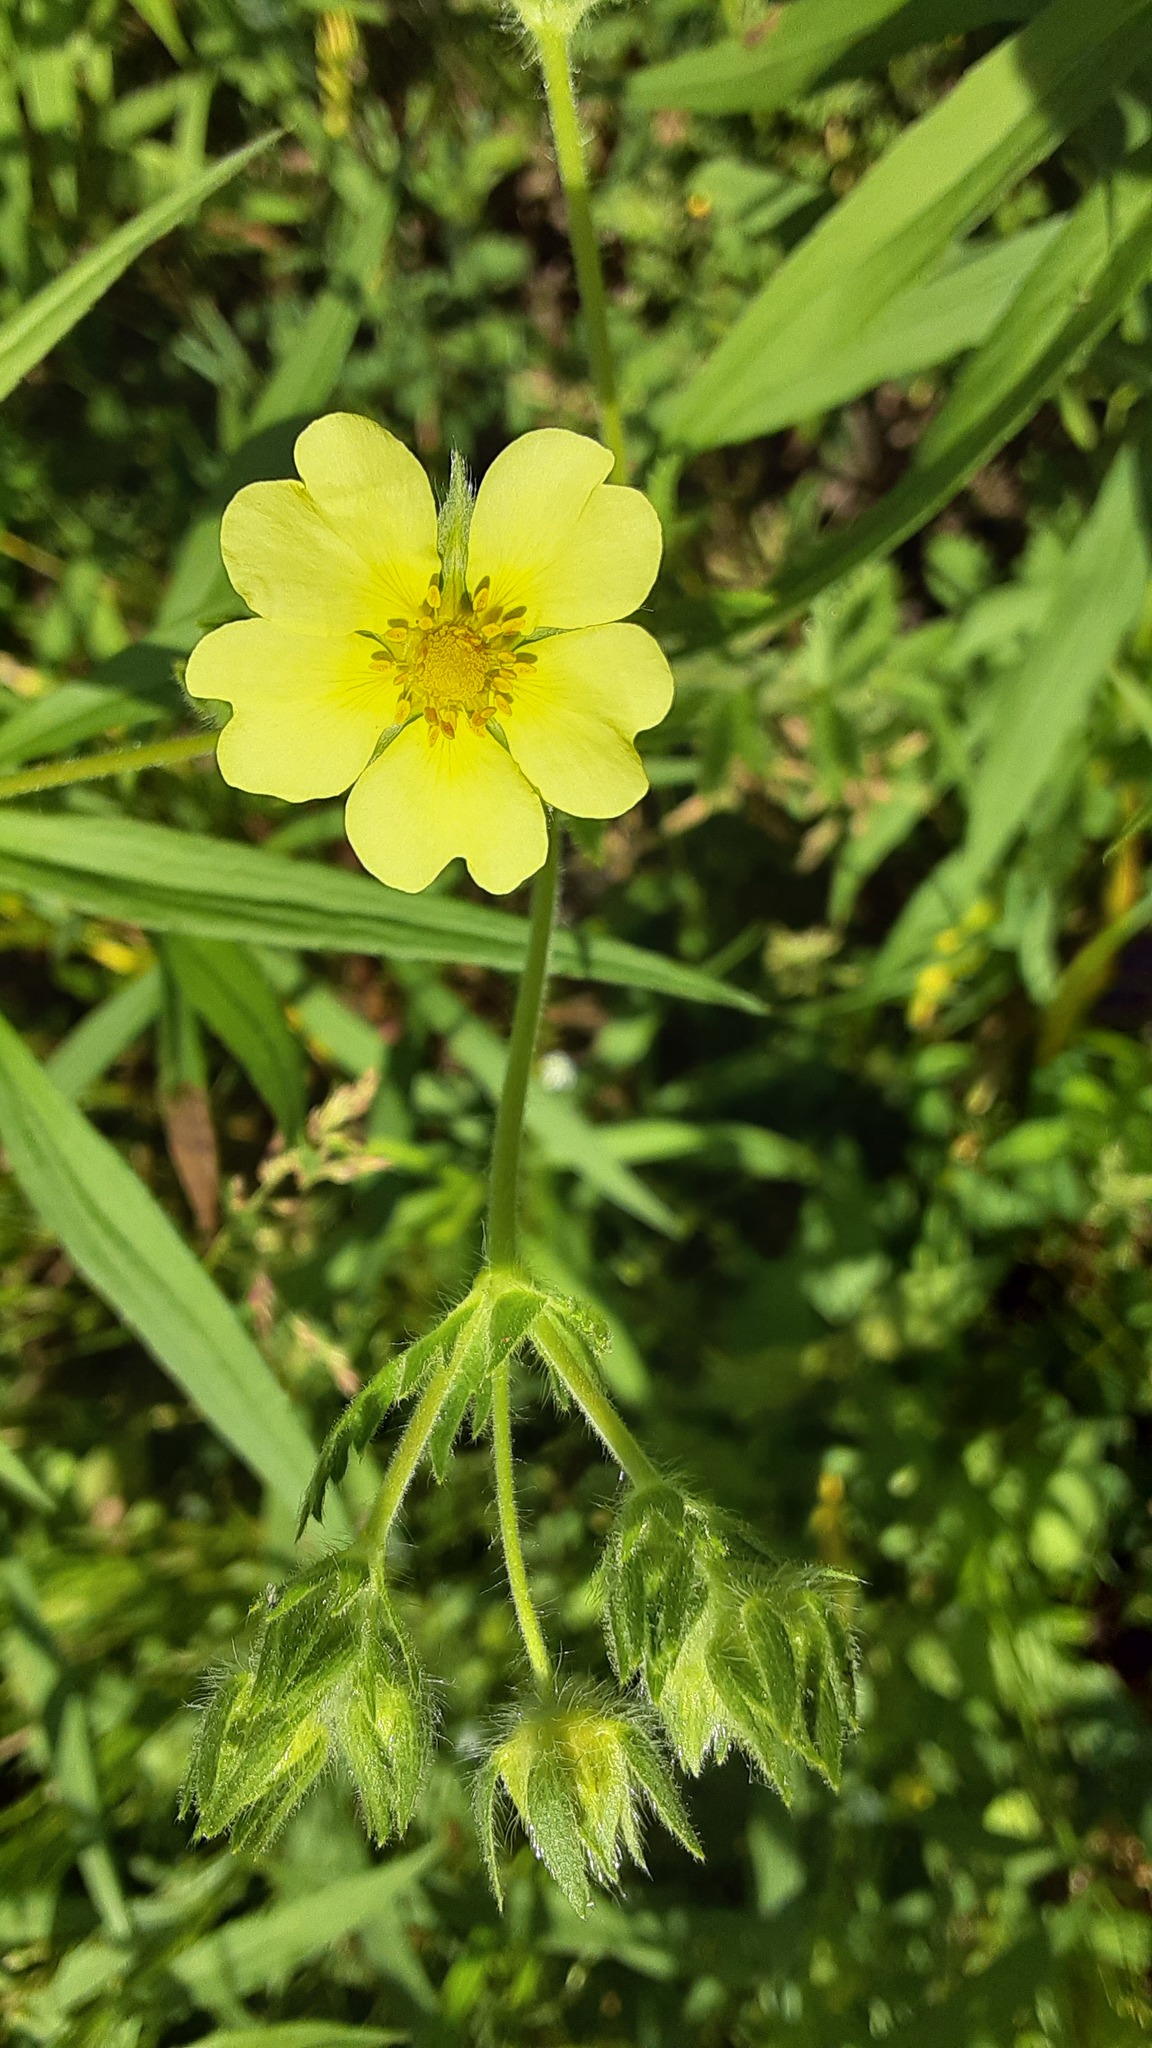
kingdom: Plantae
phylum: Tracheophyta
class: Magnoliopsida
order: Rosales
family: Rosaceae
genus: Potentilla
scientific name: Potentilla recta
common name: Sulphur cinquefoil
